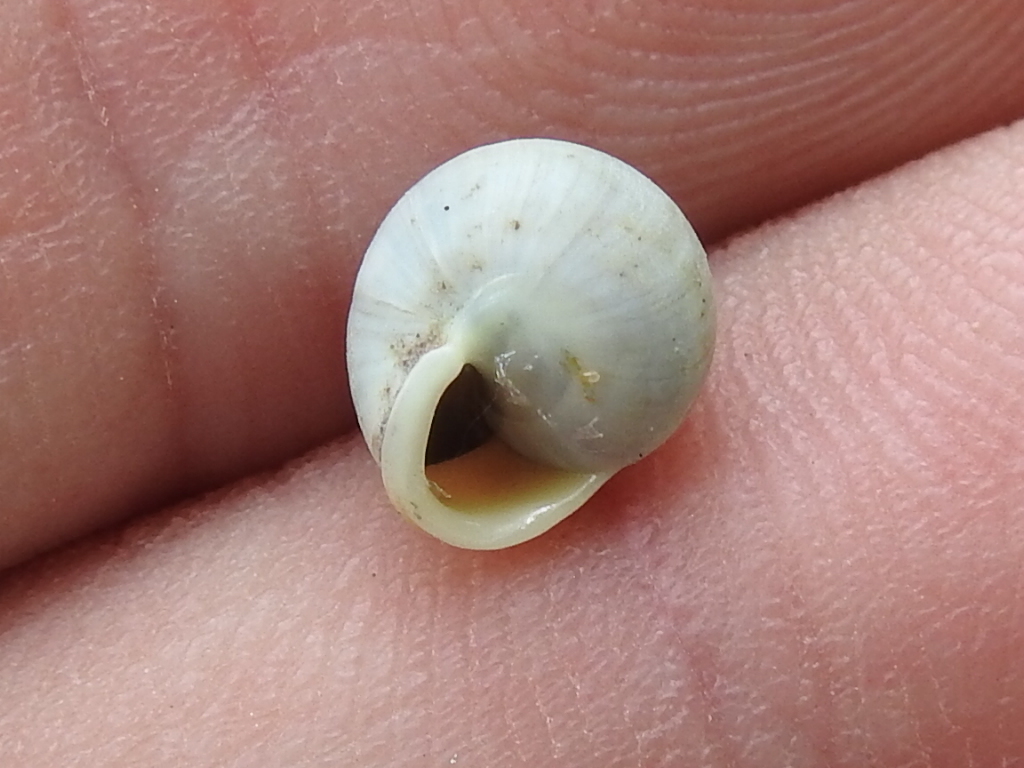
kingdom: Animalia
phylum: Mollusca
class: Gastropoda
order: Cycloneritida
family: Helicinidae
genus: Helicina
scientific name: Helicina orbiculata
